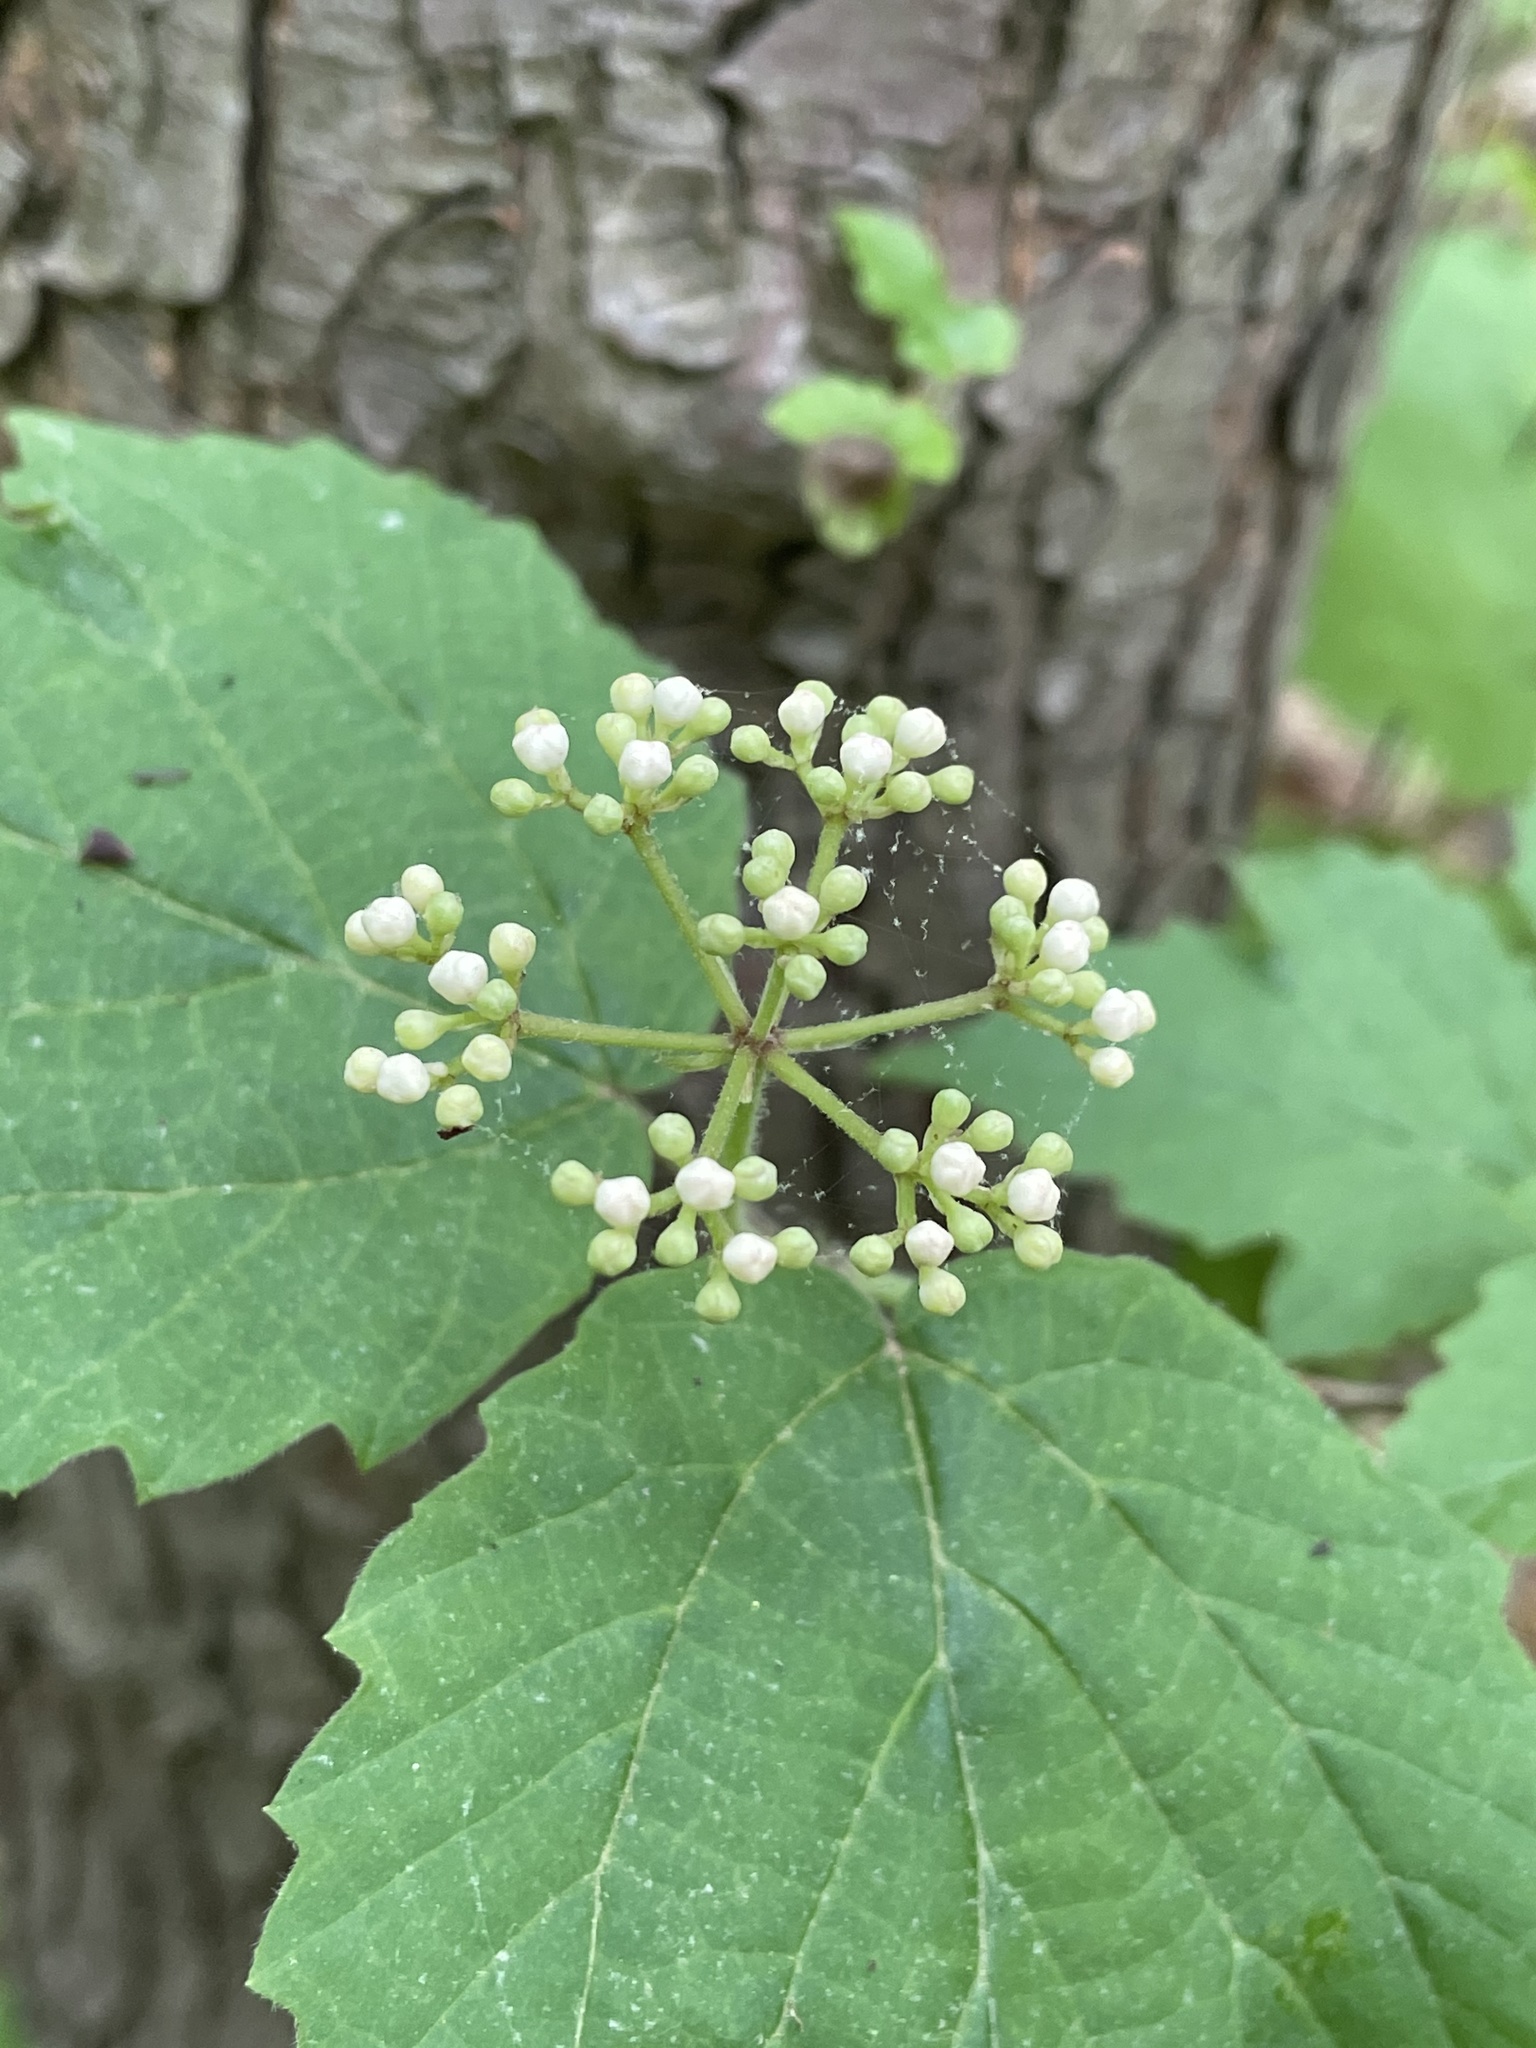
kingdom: Plantae
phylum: Tracheophyta
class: Magnoliopsida
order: Dipsacales
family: Viburnaceae
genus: Viburnum
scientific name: Viburnum acerifolium
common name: Dockmackie
